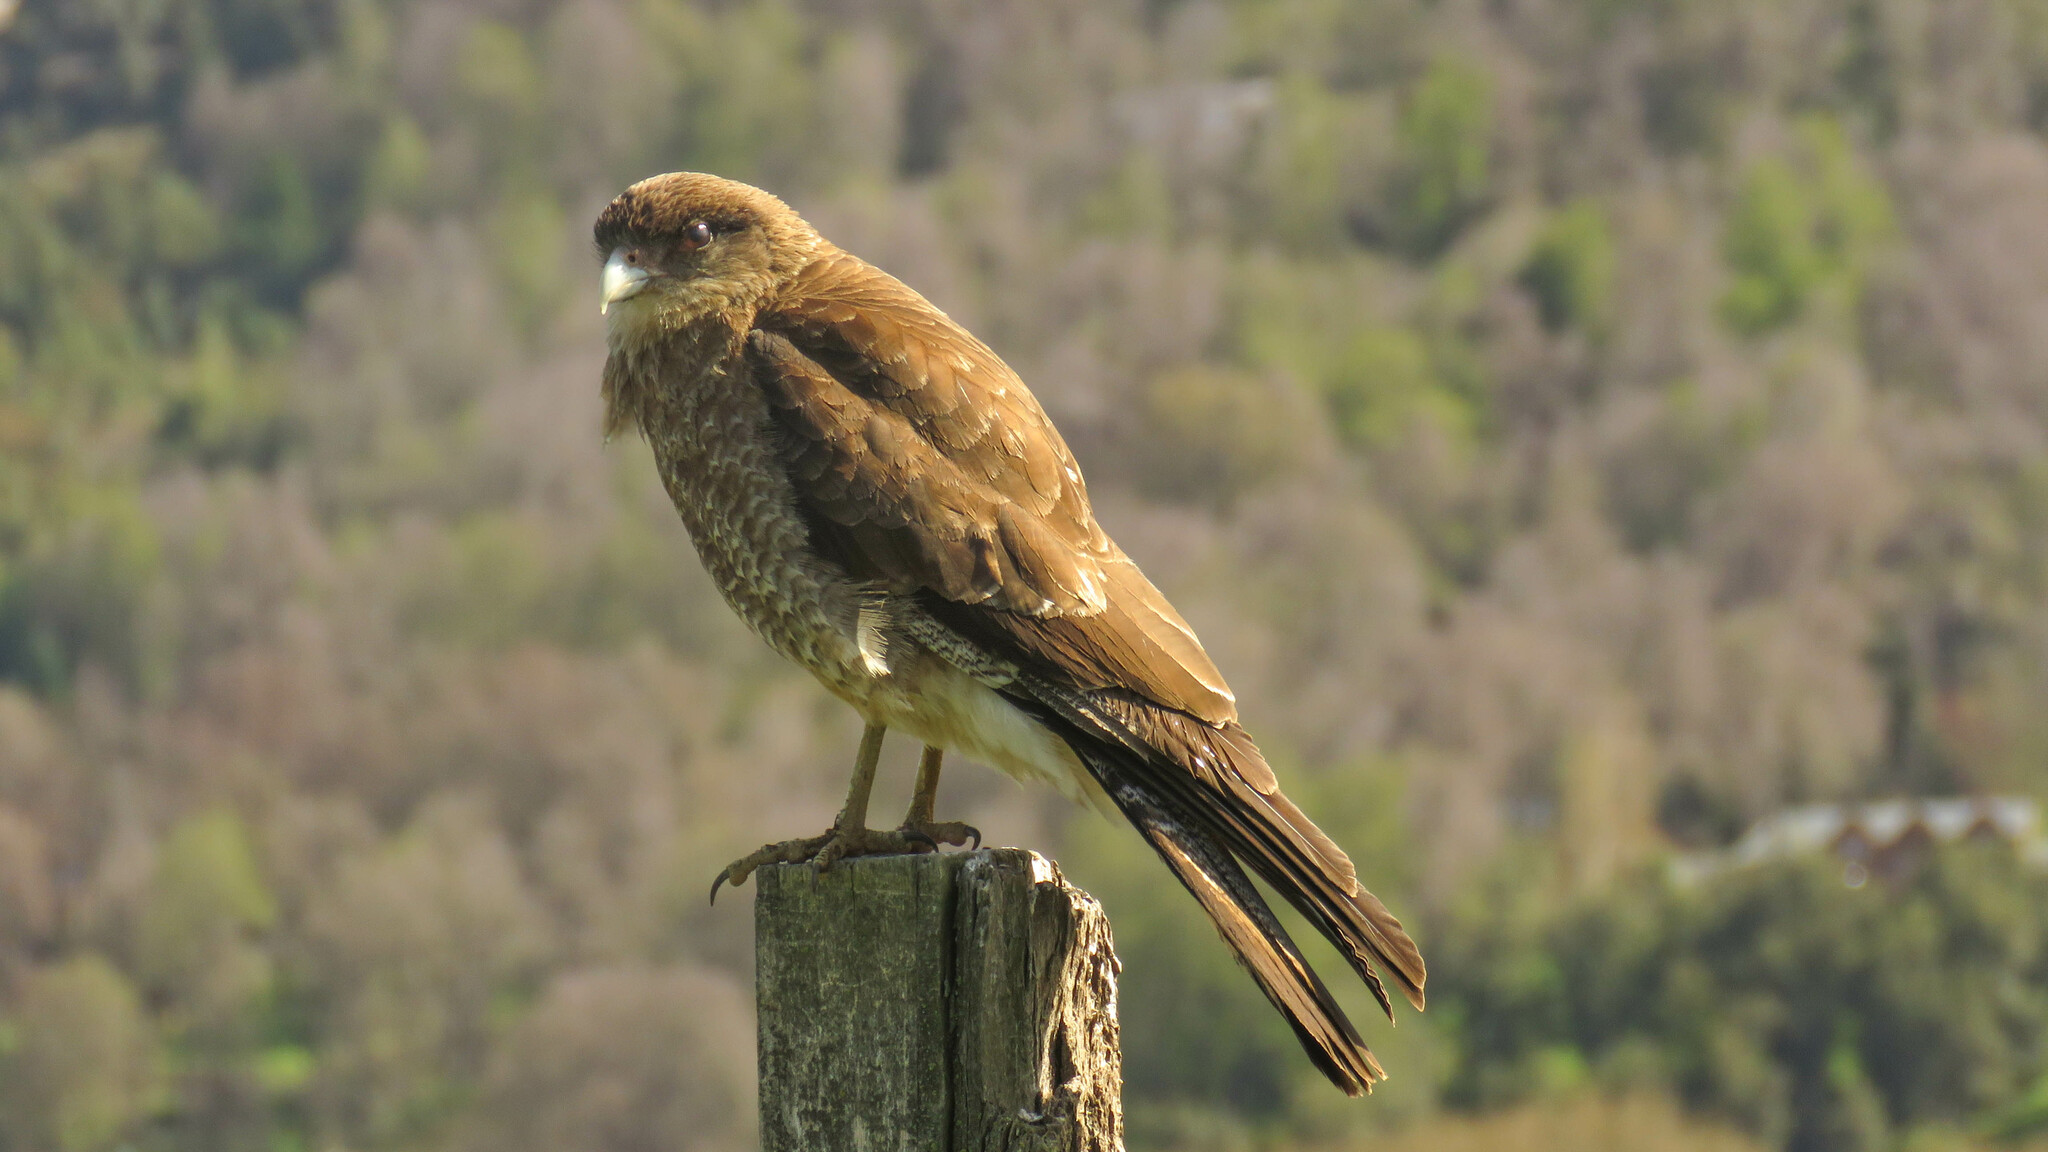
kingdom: Animalia
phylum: Chordata
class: Aves
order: Falconiformes
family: Falconidae
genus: Daptrius
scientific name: Daptrius
